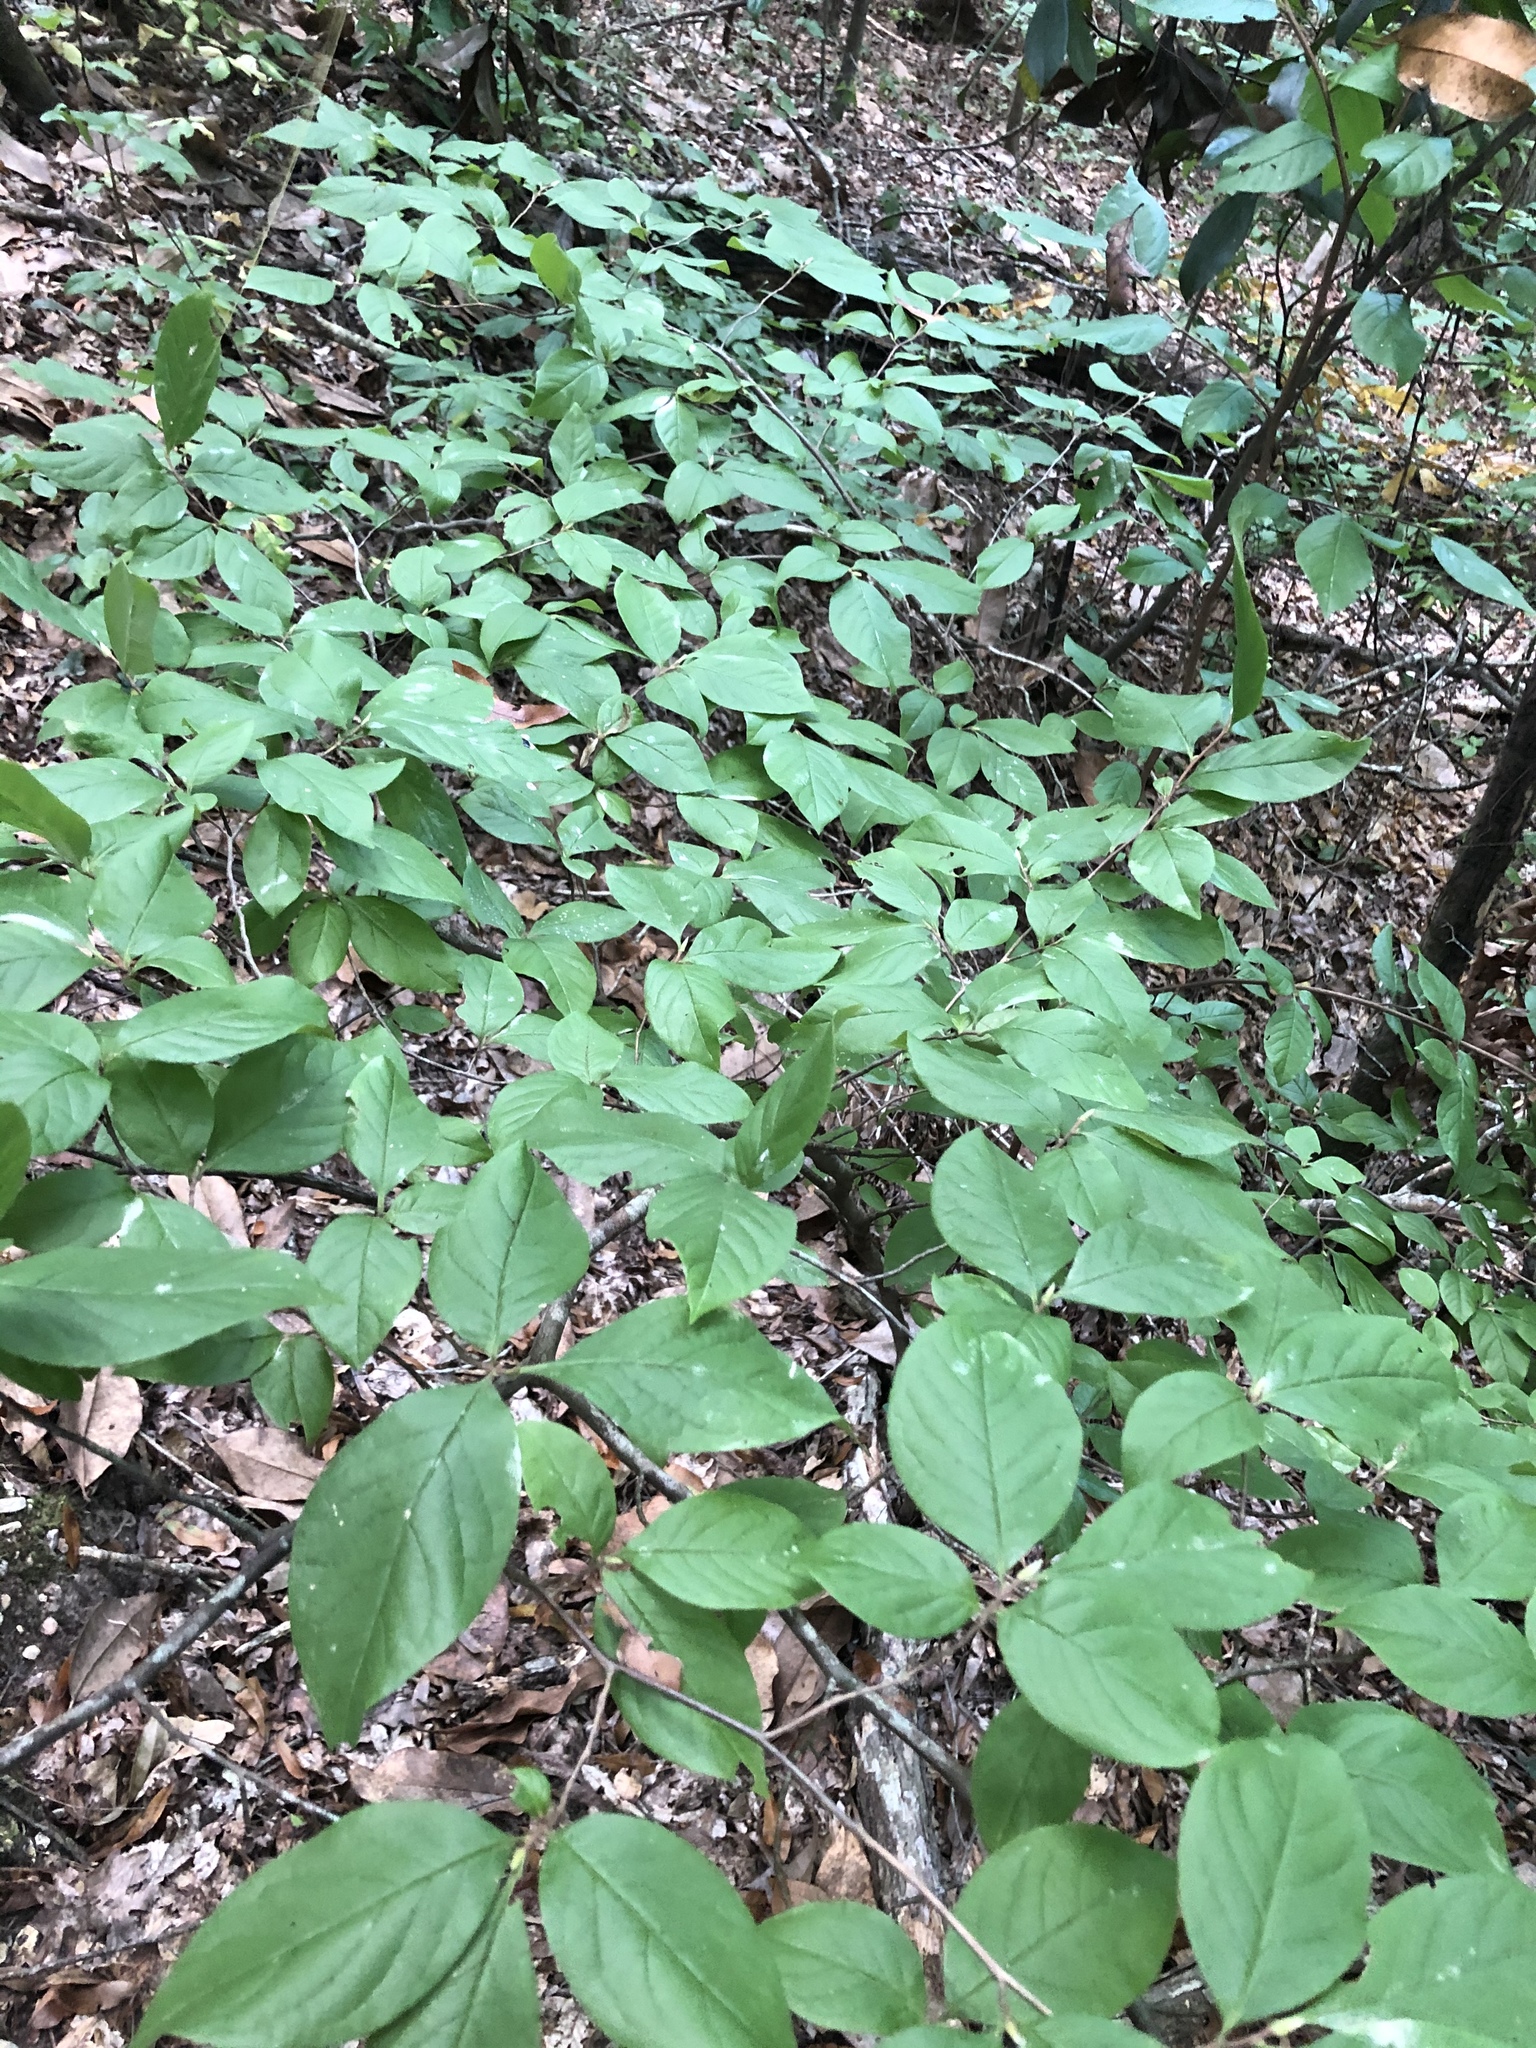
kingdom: Plantae
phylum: Tracheophyta
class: Magnoliopsida
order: Ericales
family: Theaceae
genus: Stewartia
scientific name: Stewartia malacodendron
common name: Virginia stewartia
